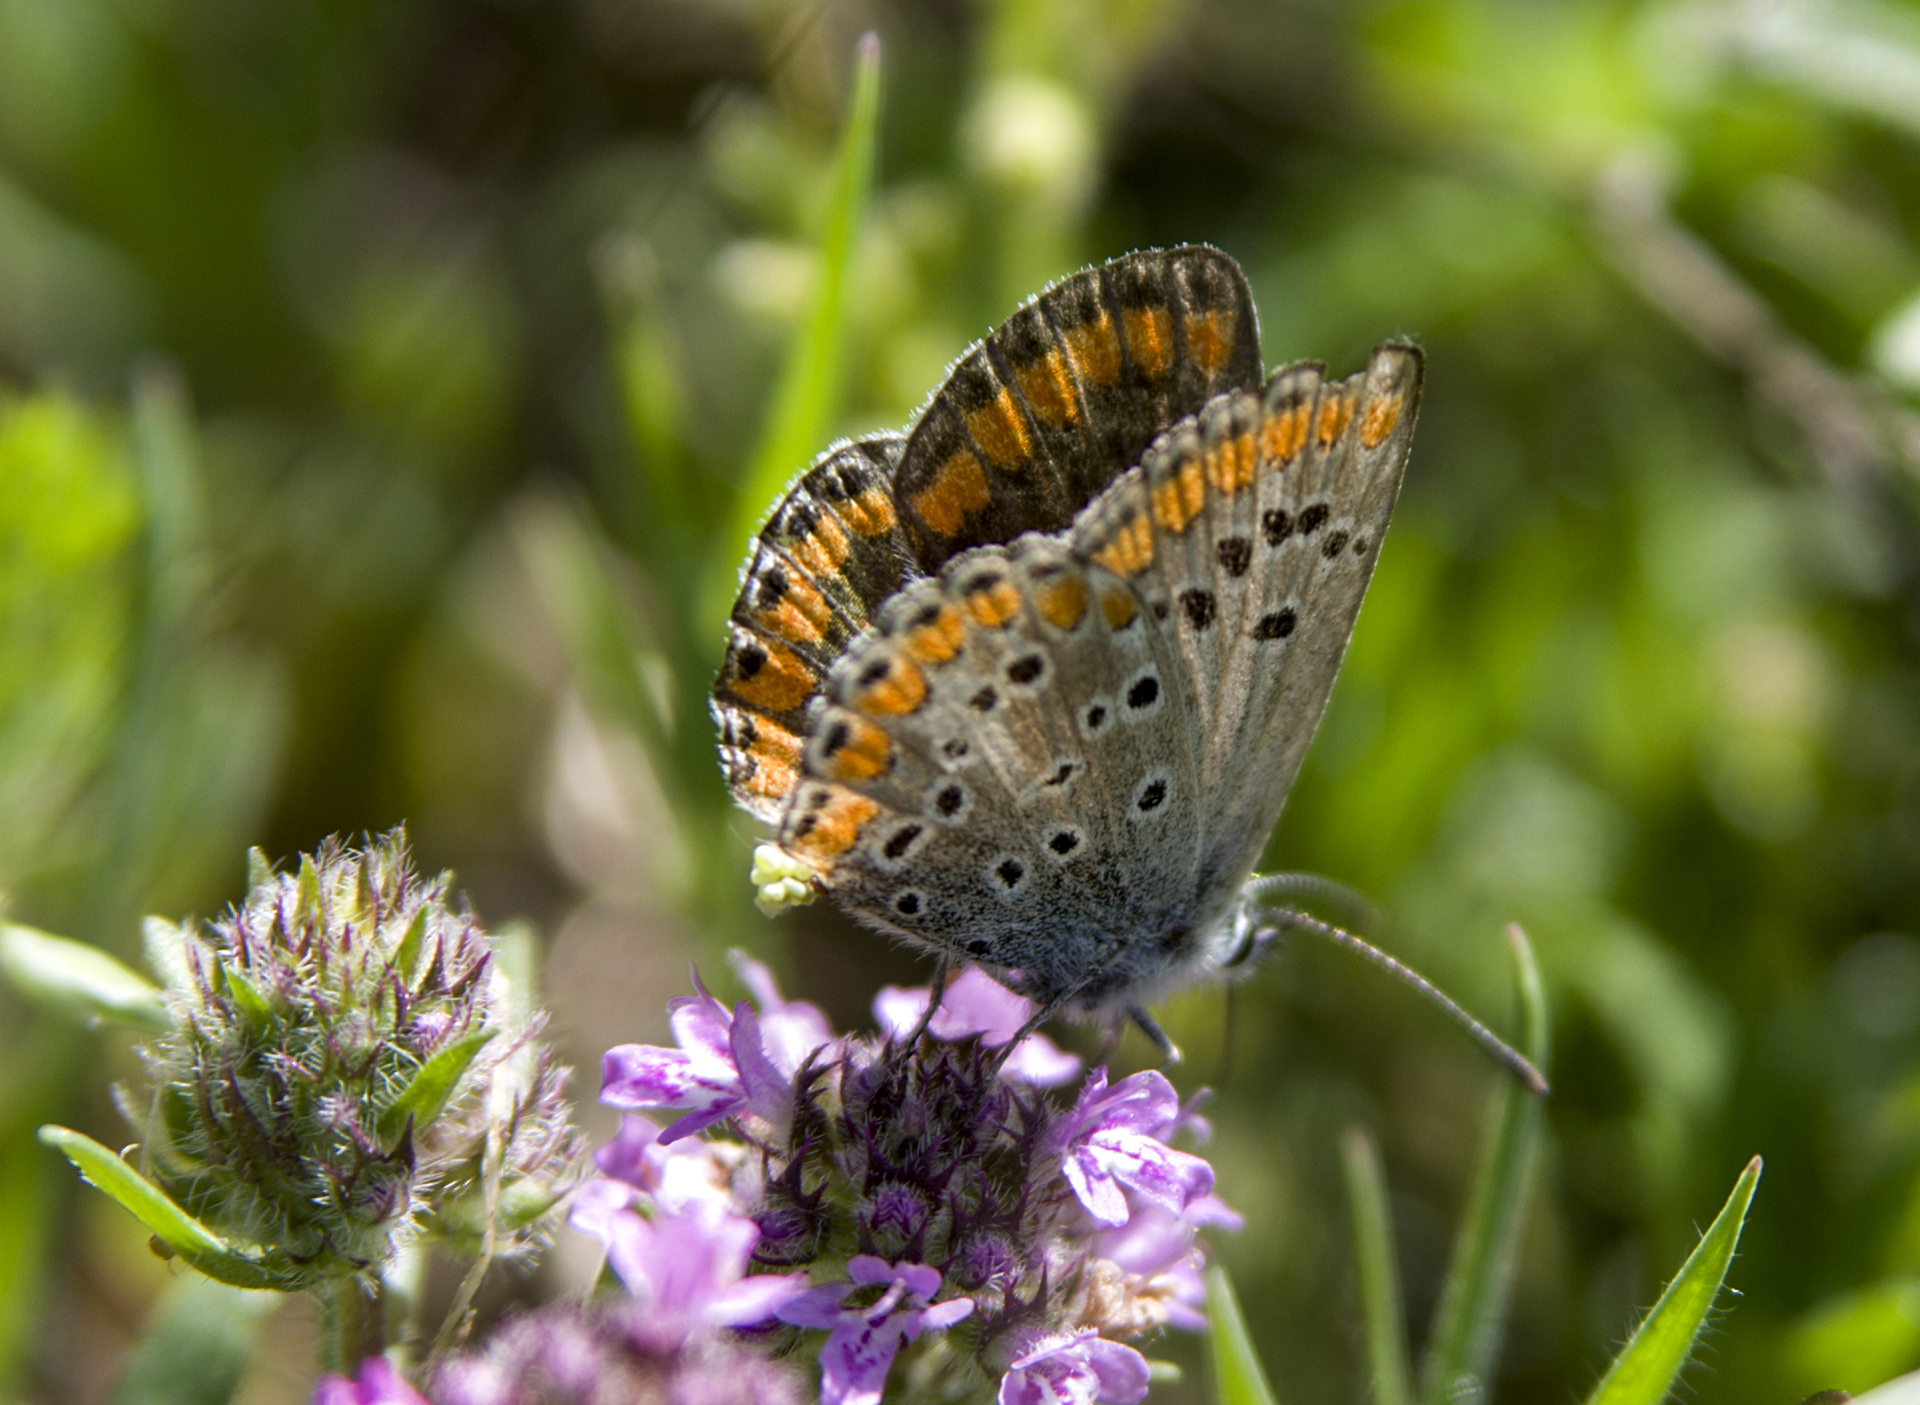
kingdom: Animalia
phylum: Arthropoda
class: Insecta
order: Lepidoptera
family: Lycaenidae
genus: Aricia
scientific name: Aricia agestis
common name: Brown argus
